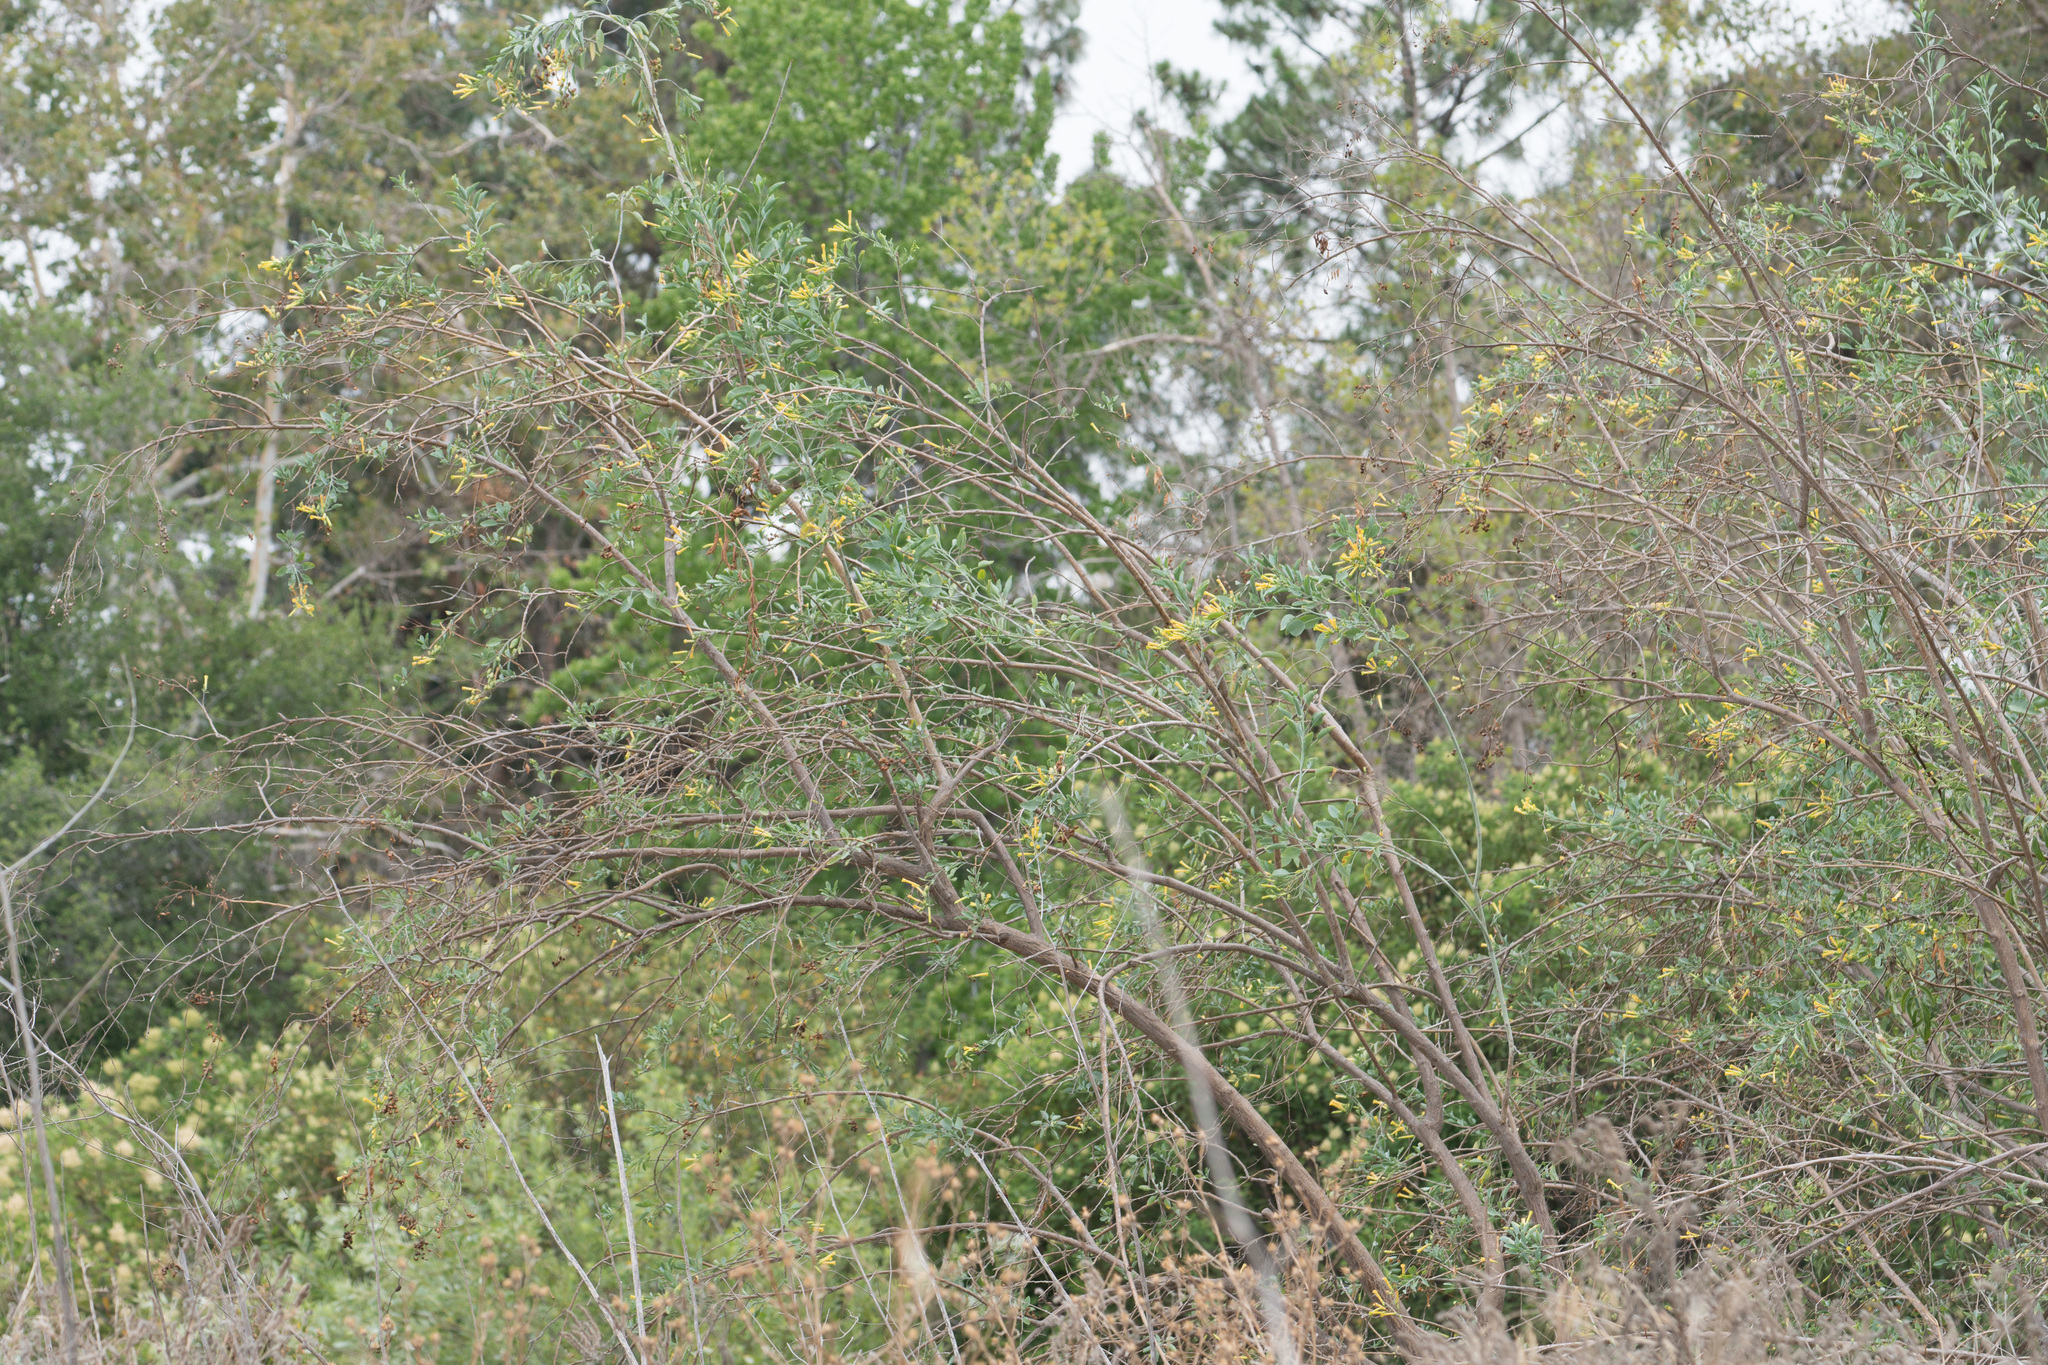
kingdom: Plantae
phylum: Tracheophyta
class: Magnoliopsida
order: Solanales
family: Solanaceae
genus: Nicotiana
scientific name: Nicotiana glauca
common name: Tree tobacco
